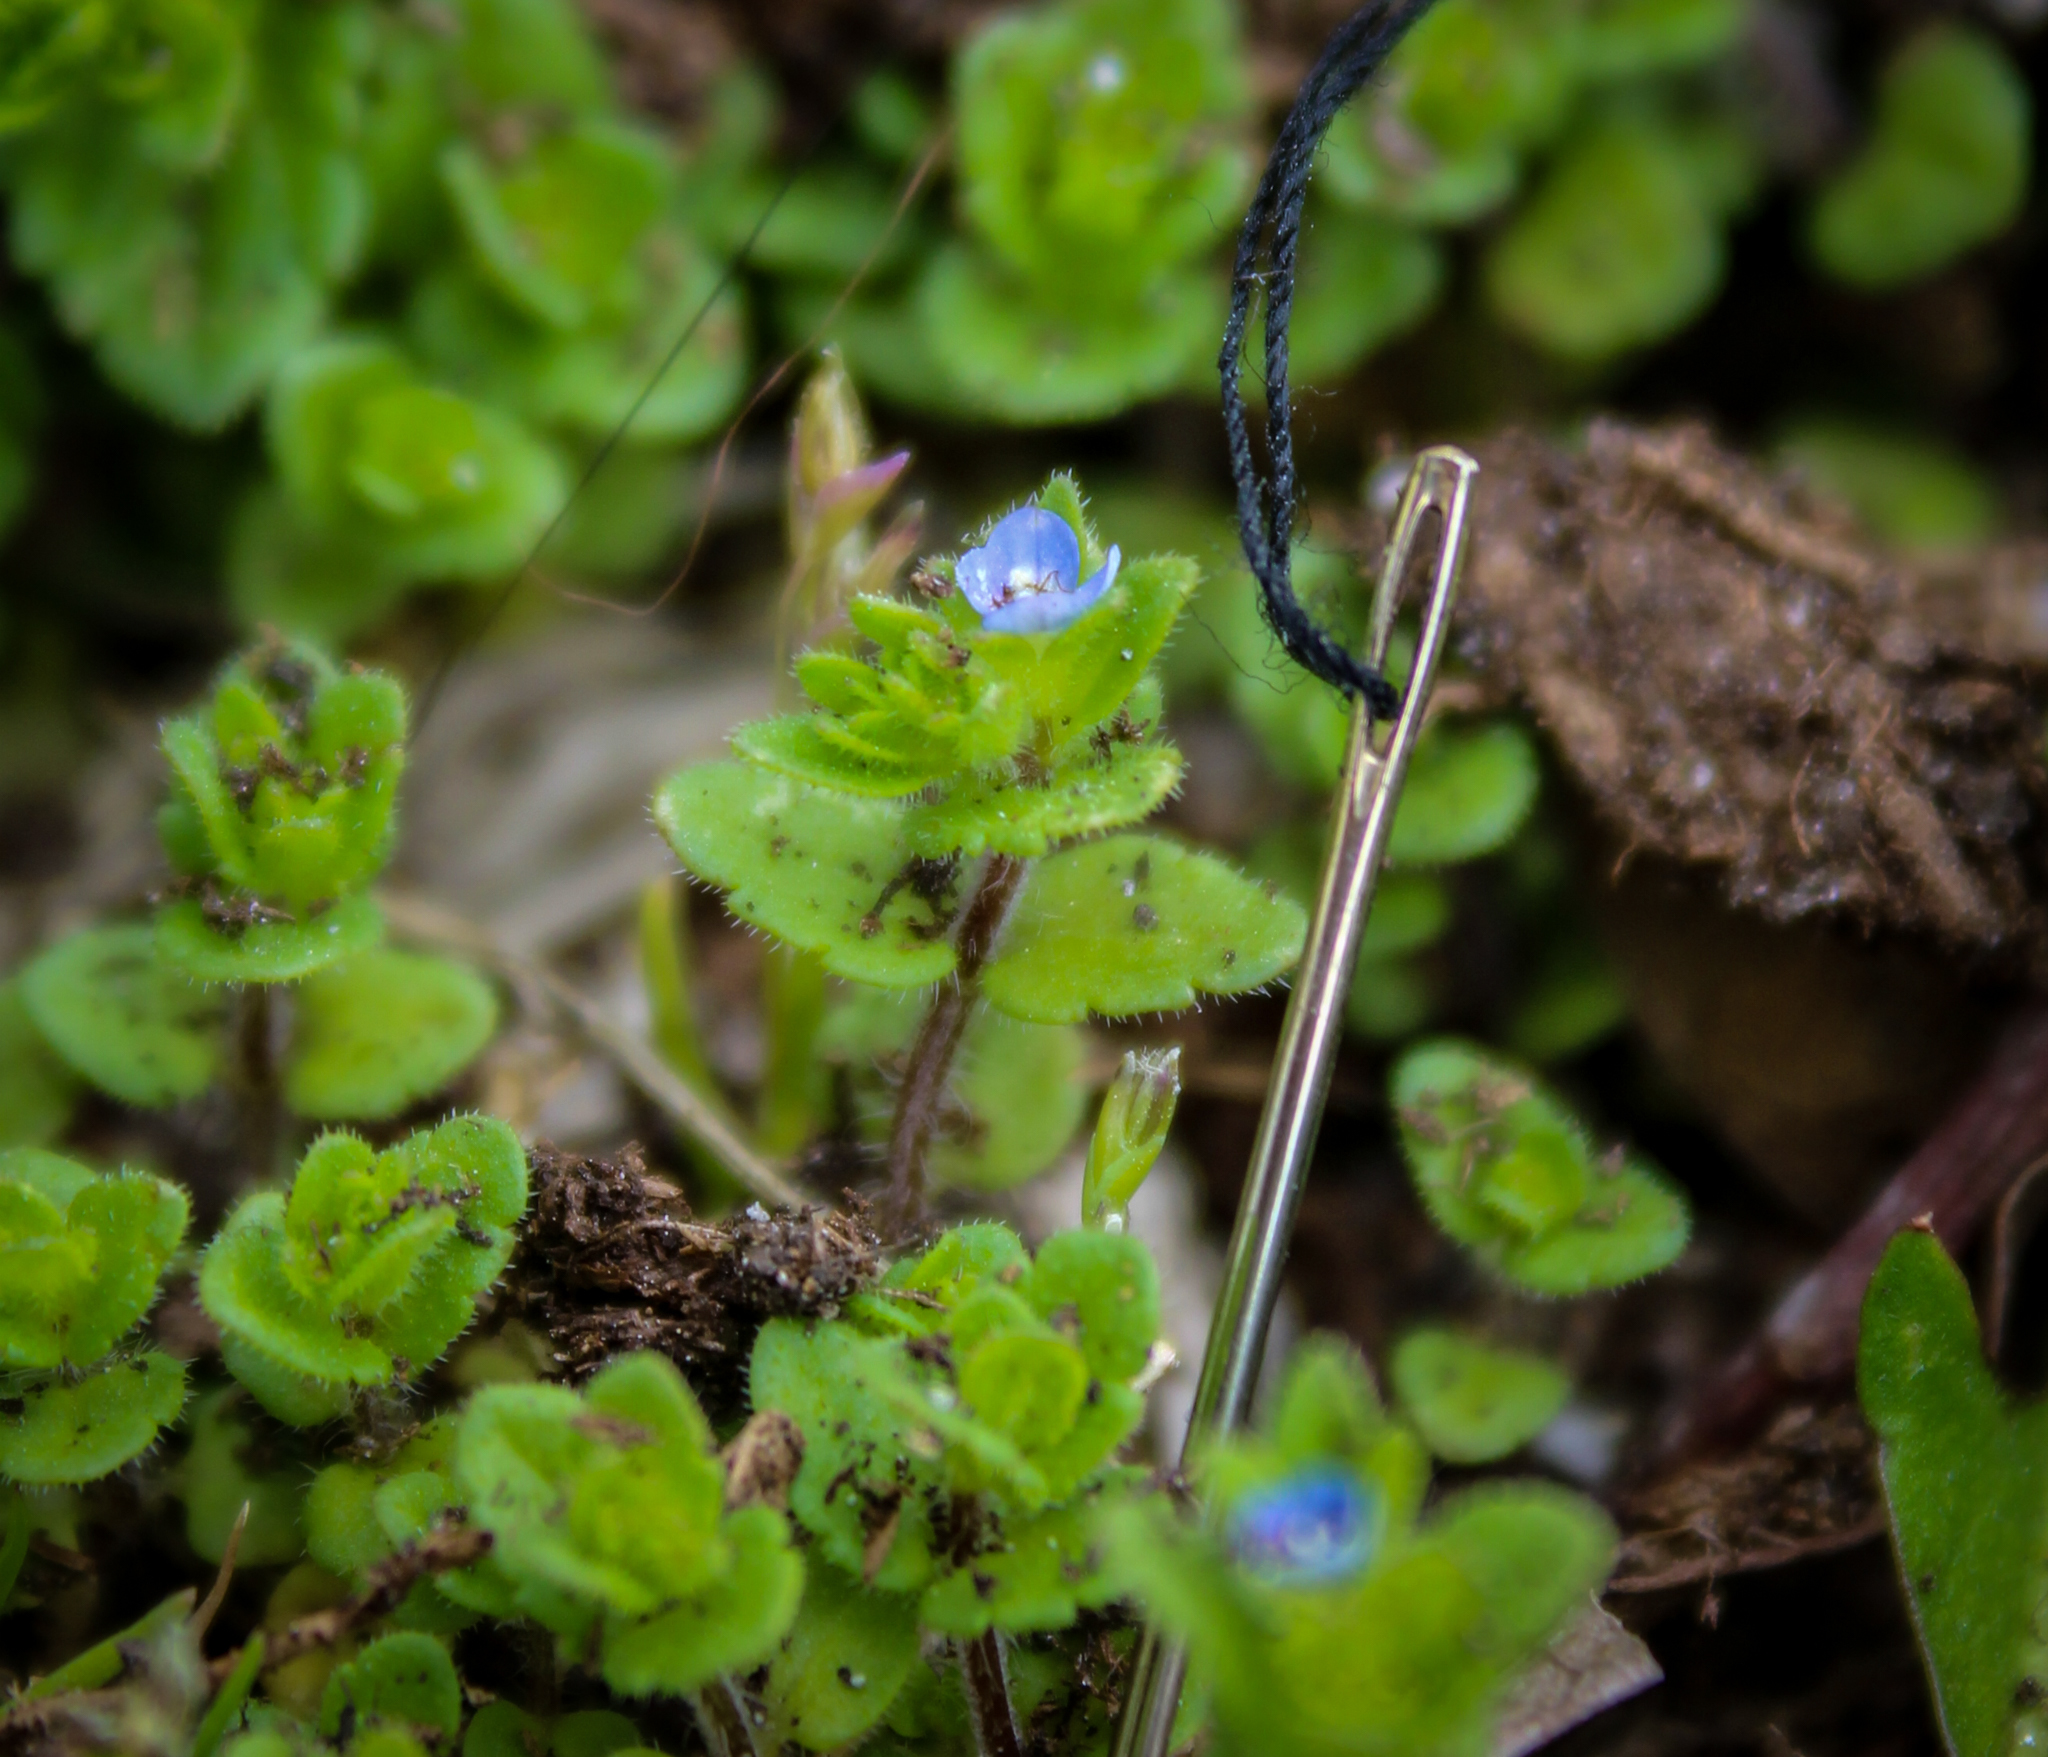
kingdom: Plantae
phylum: Tracheophyta
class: Magnoliopsida
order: Lamiales
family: Plantaginaceae
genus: Veronica
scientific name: Veronica arvensis
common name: Corn speedwell
